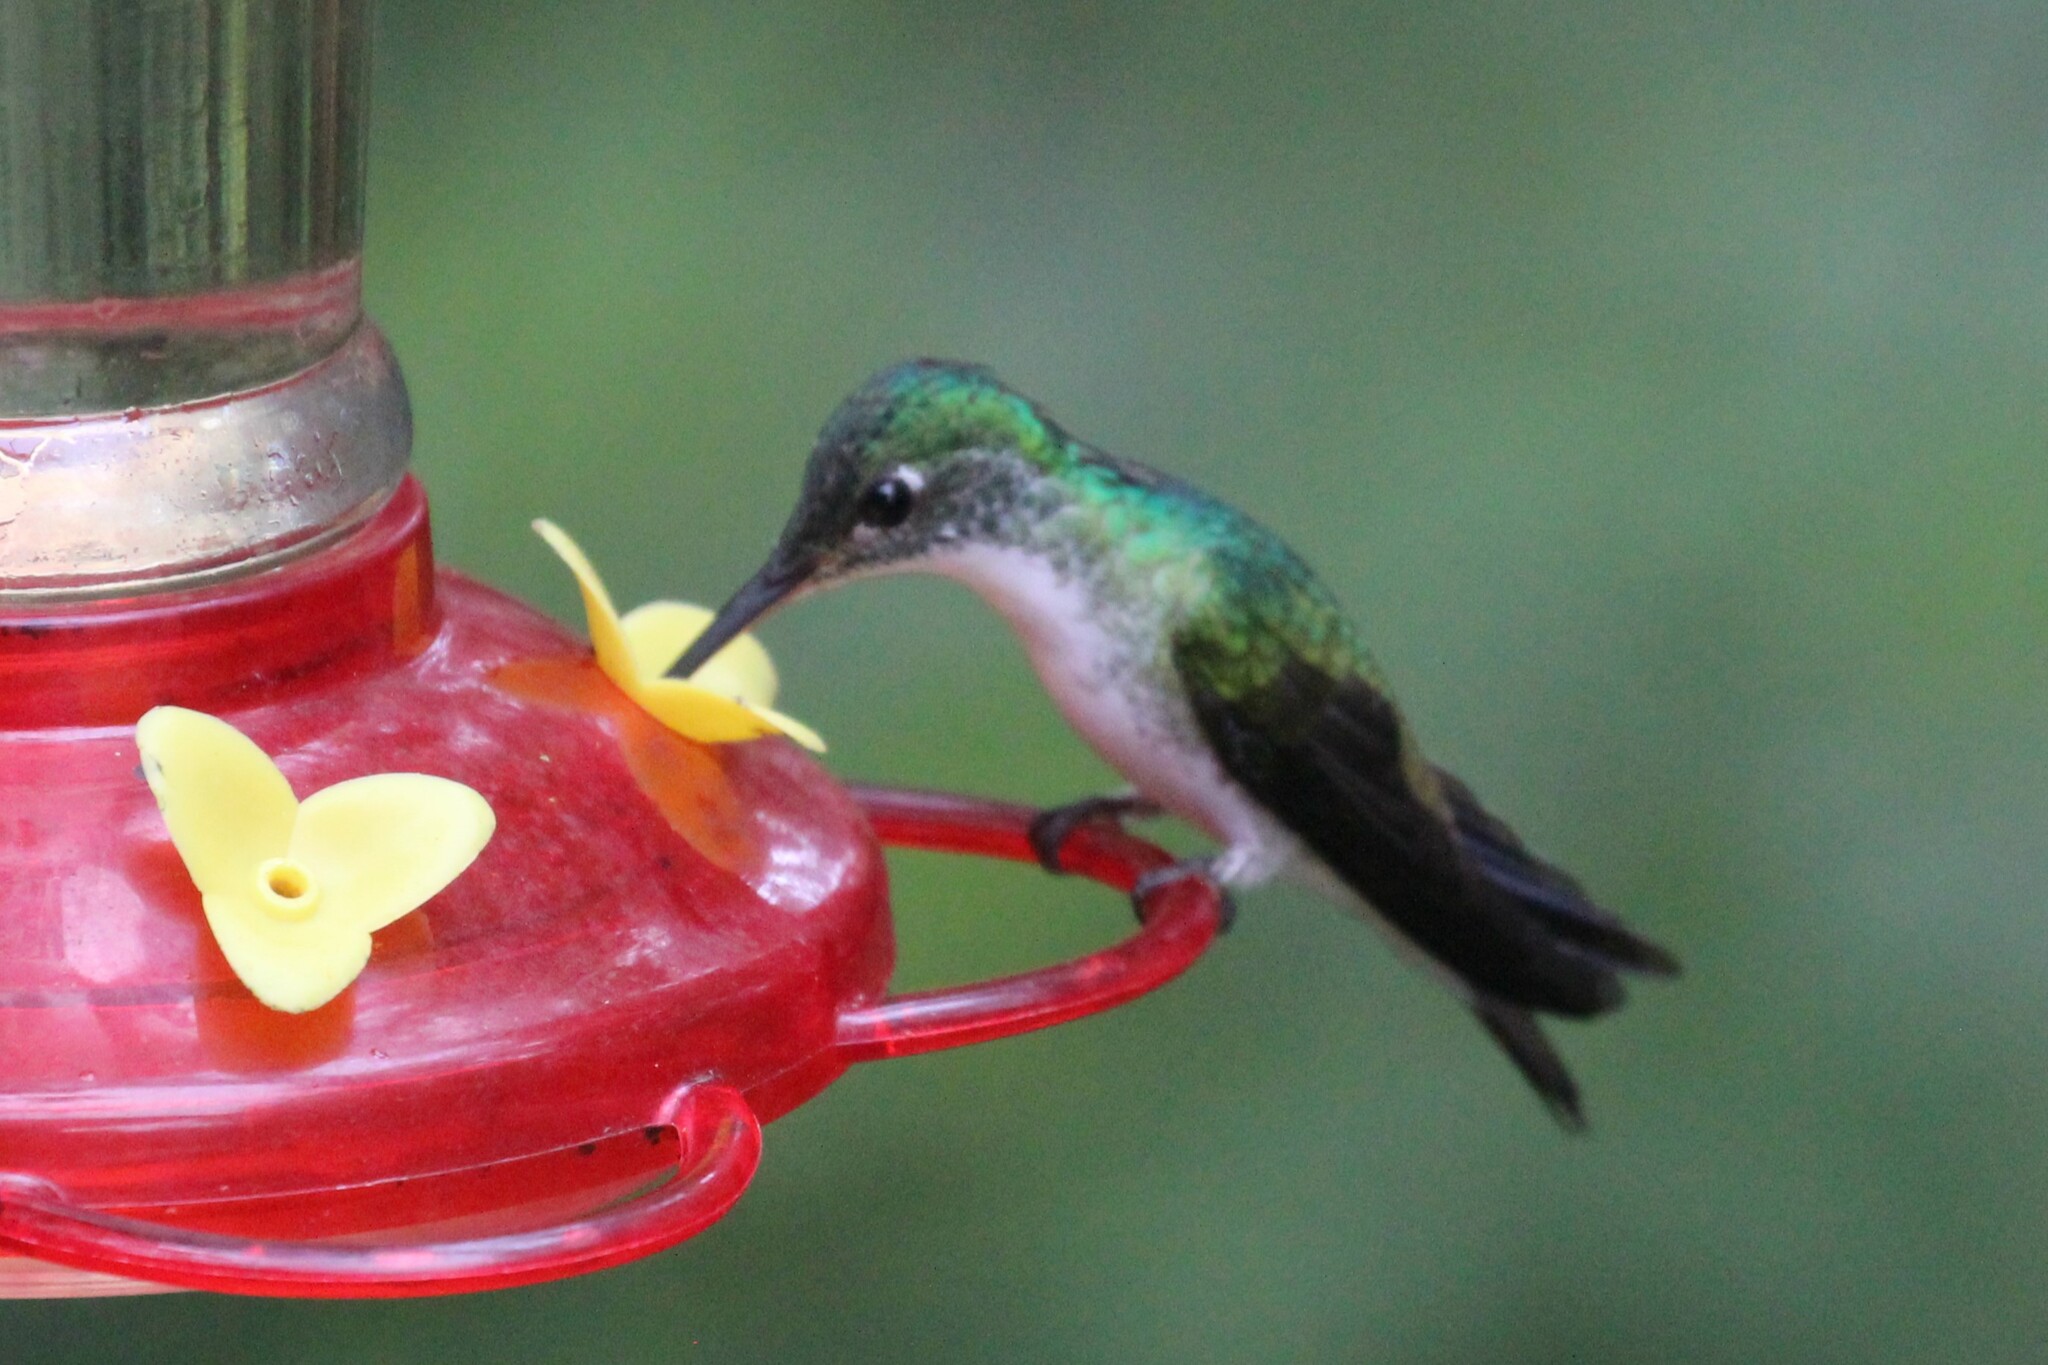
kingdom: Animalia
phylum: Chordata
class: Aves
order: Apodiformes
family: Trochilidae
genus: Uranomitra
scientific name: Uranomitra franciae
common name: Andean emerald
